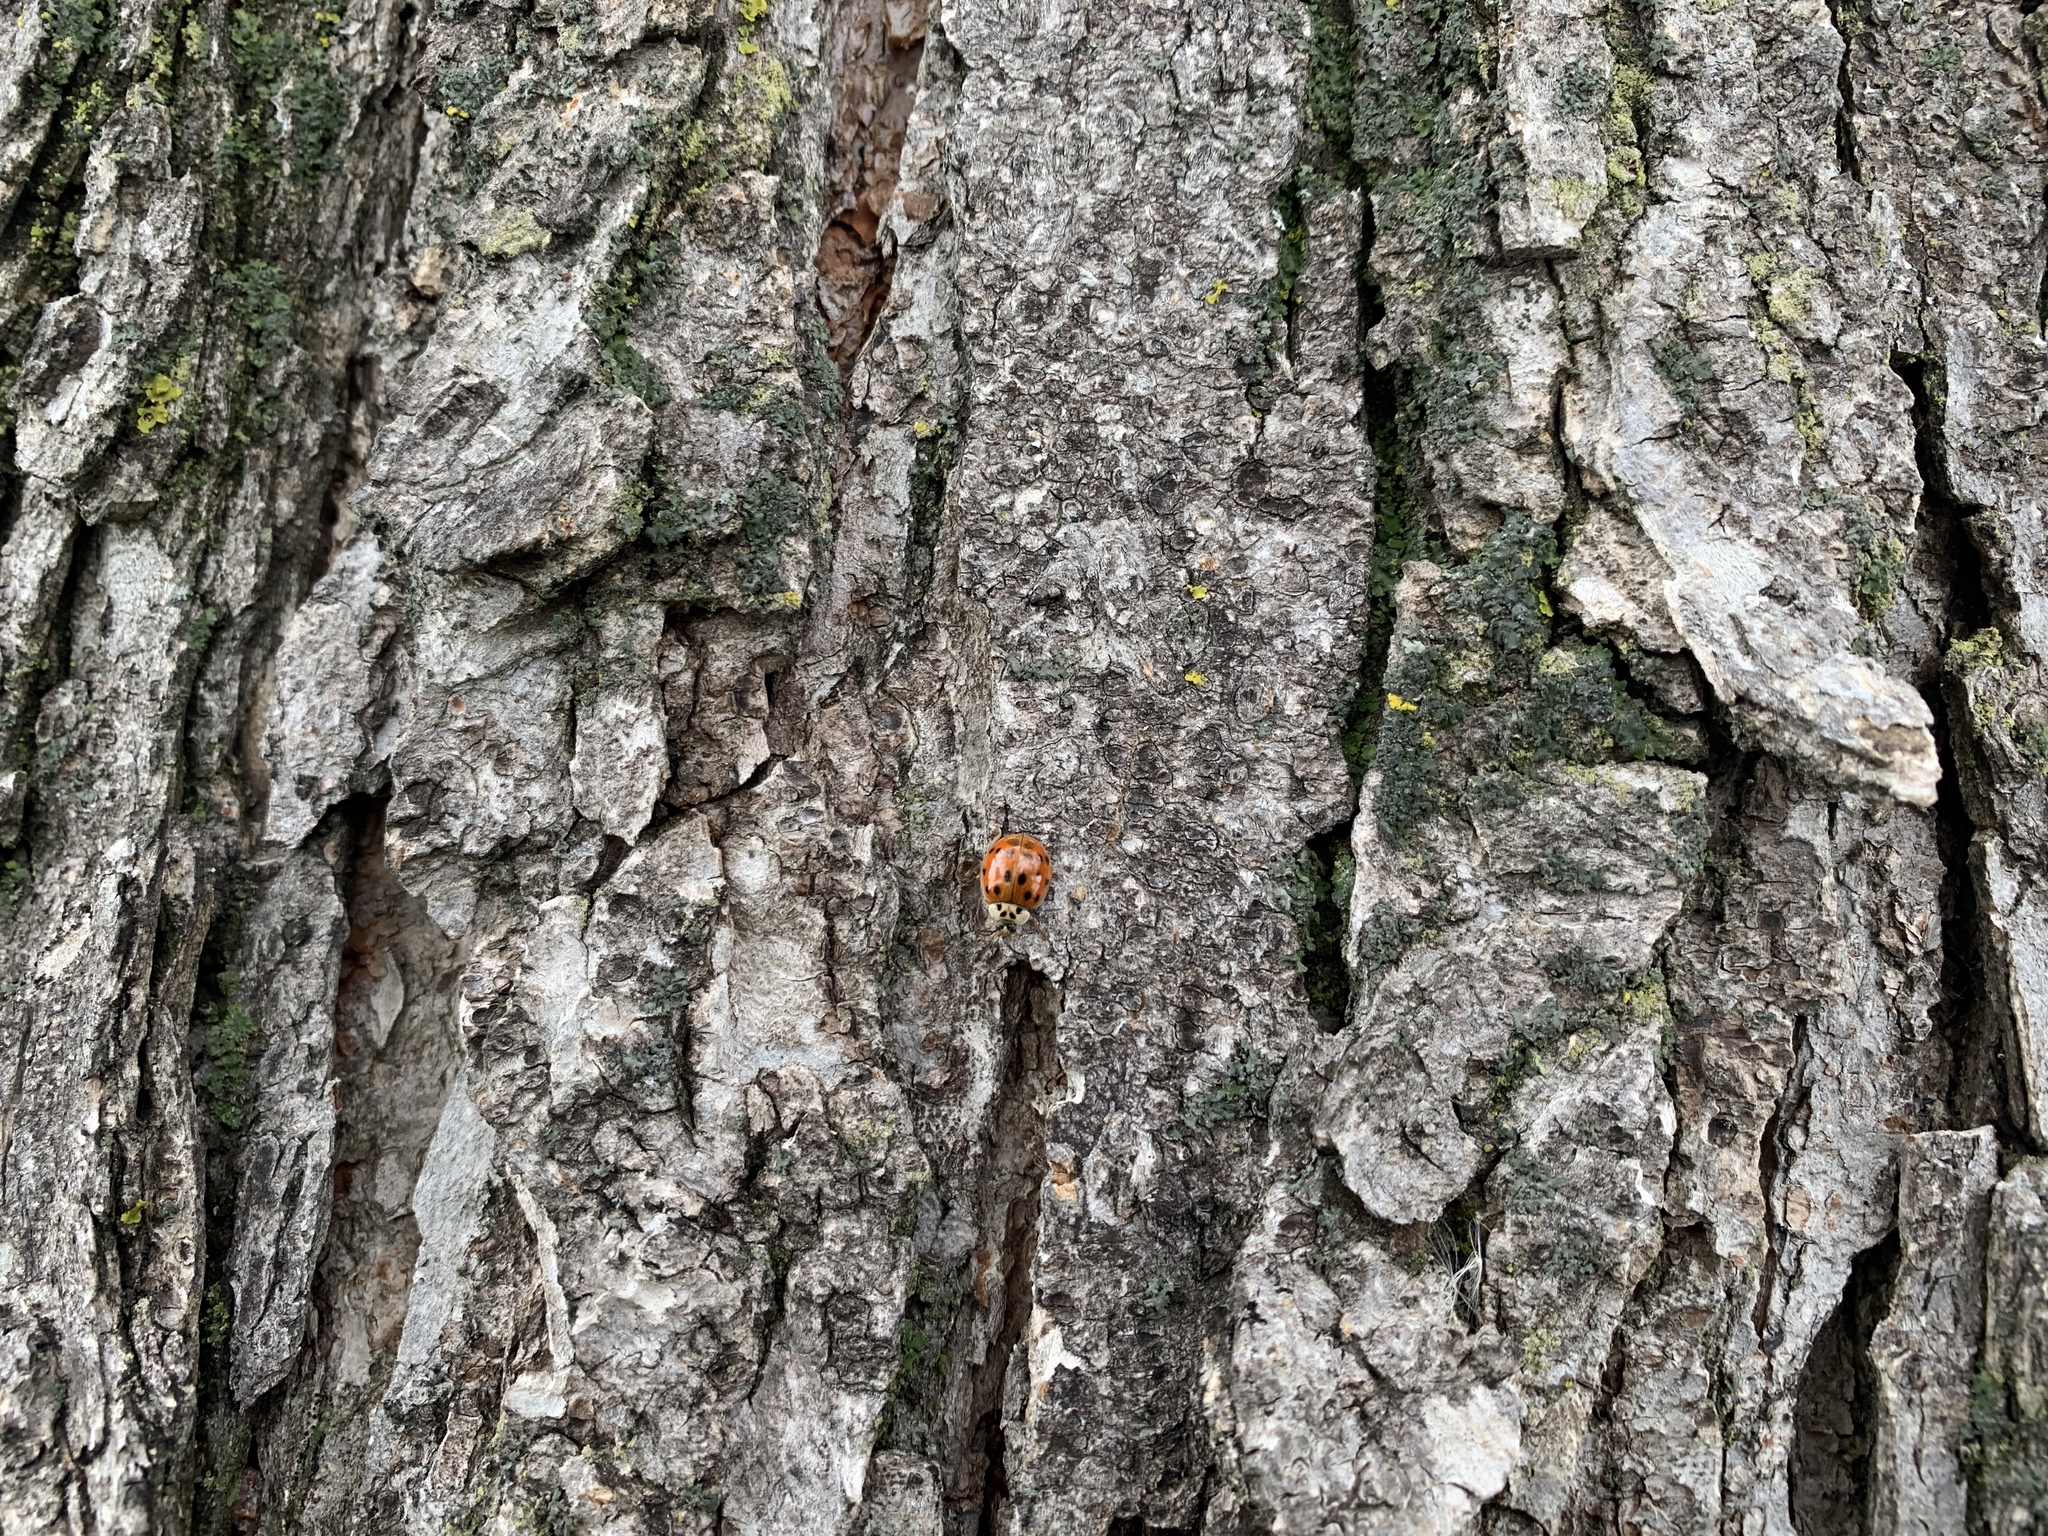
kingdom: Animalia
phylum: Arthropoda
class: Insecta
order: Coleoptera
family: Coccinellidae
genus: Harmonia
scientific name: Harmonia axyridis
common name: Harlequin ladybird
